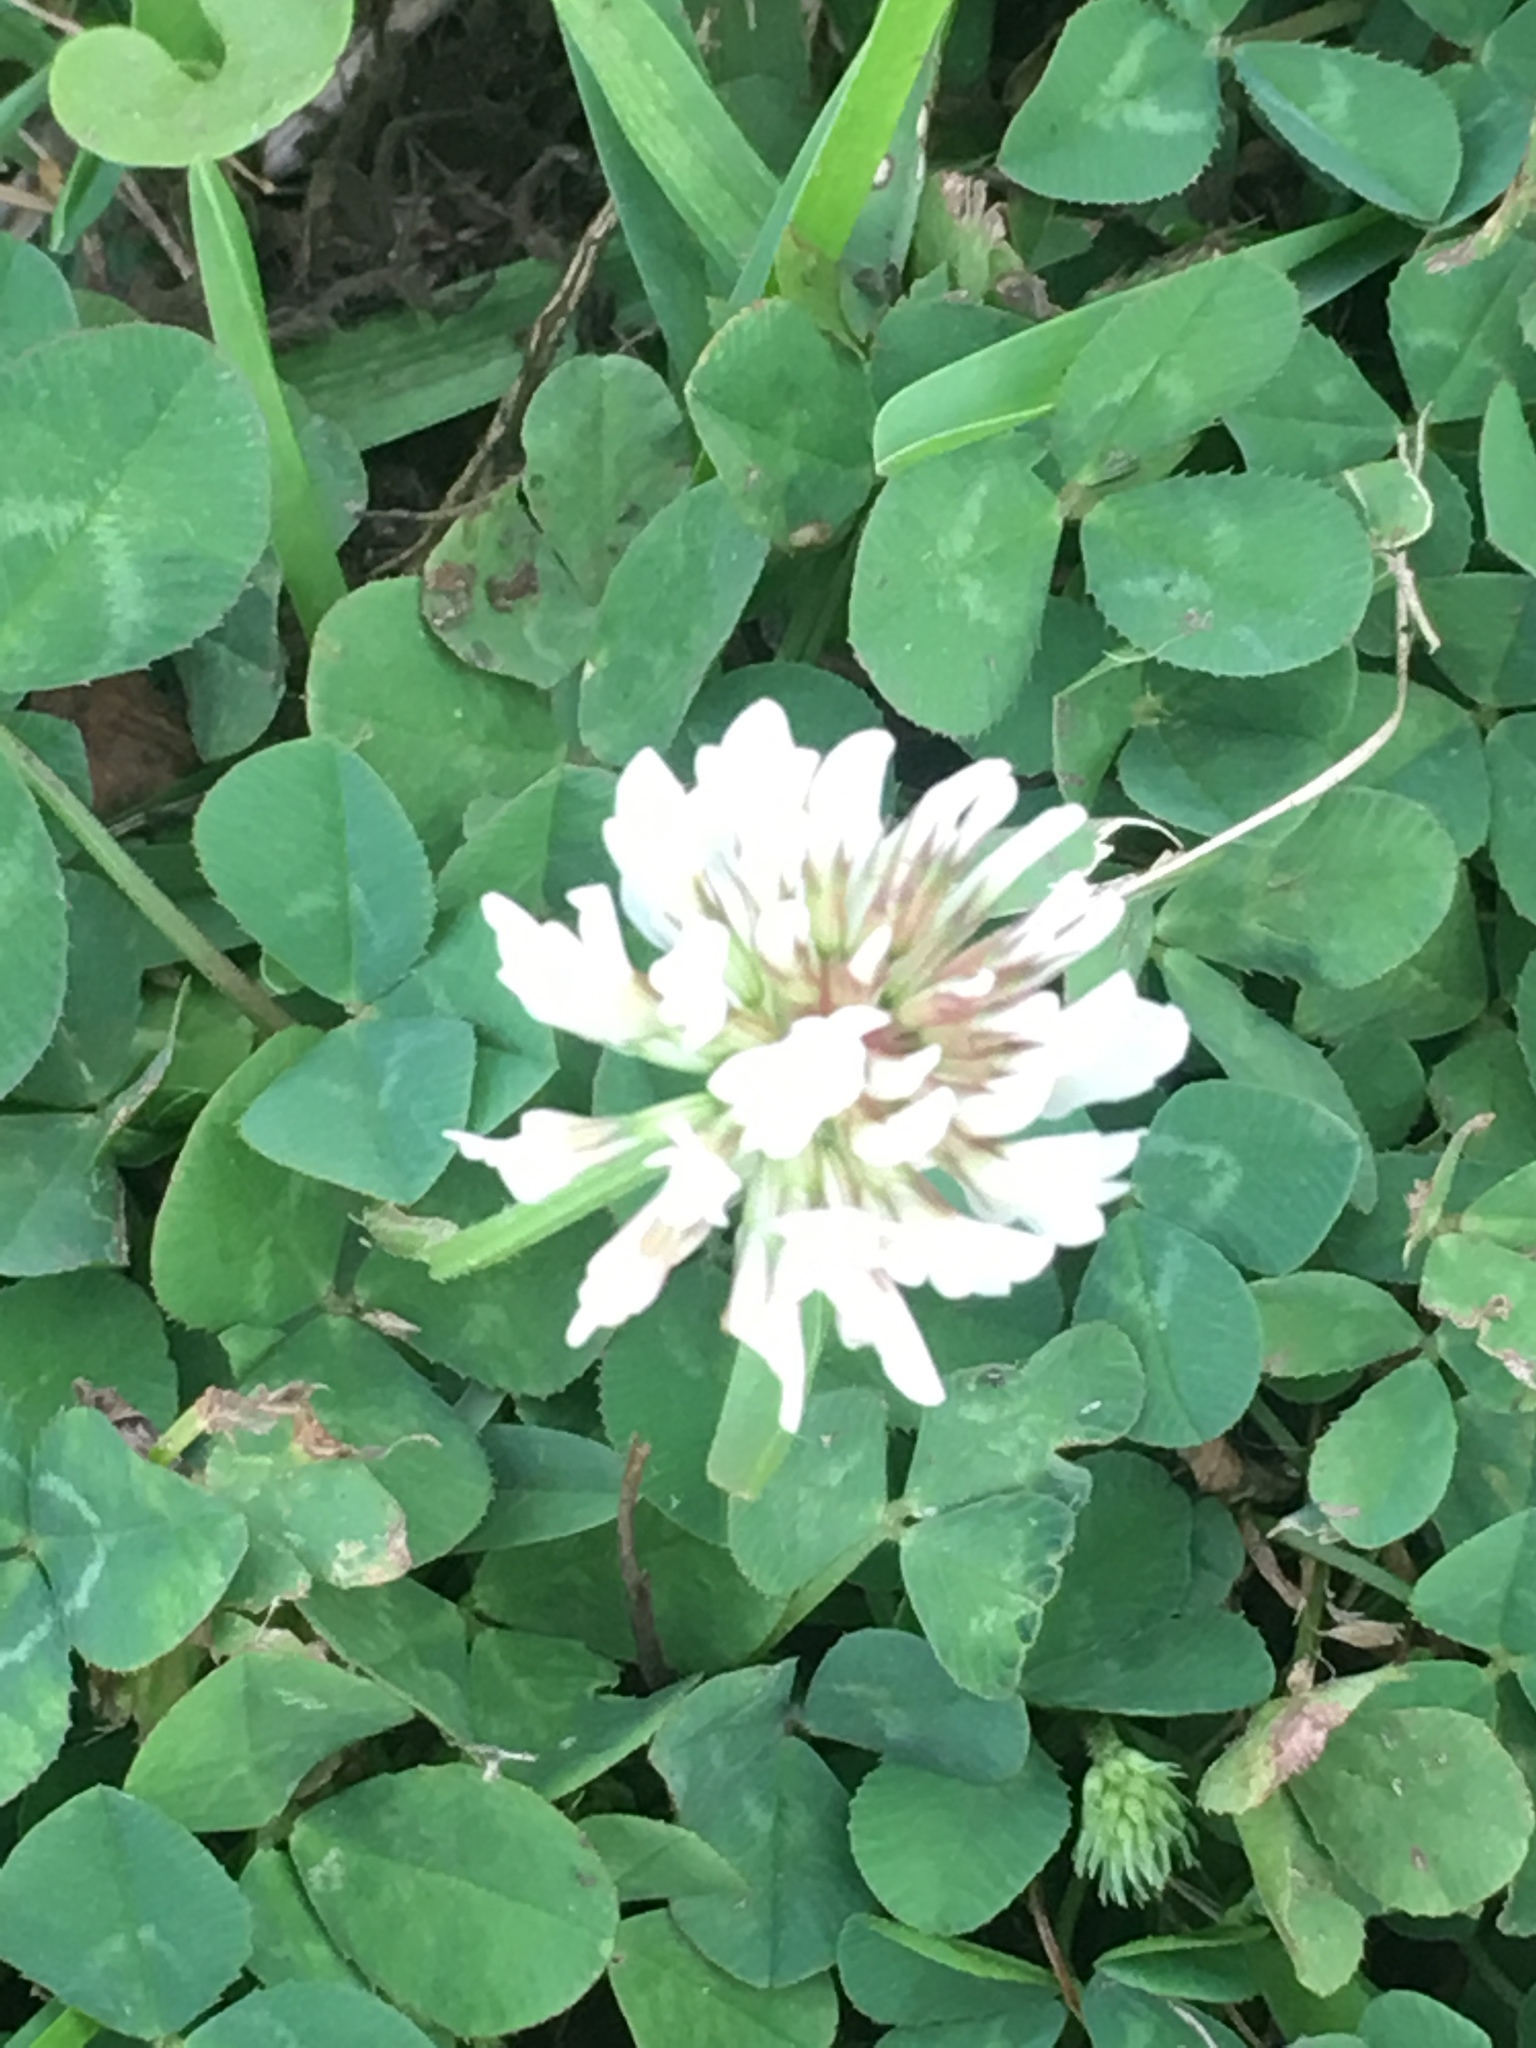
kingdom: Plantae
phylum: Tracheophyta
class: Magnoliopsida
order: Fabales
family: Fabaceae
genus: Trifolium
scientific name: Trifolium repens
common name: White clover
